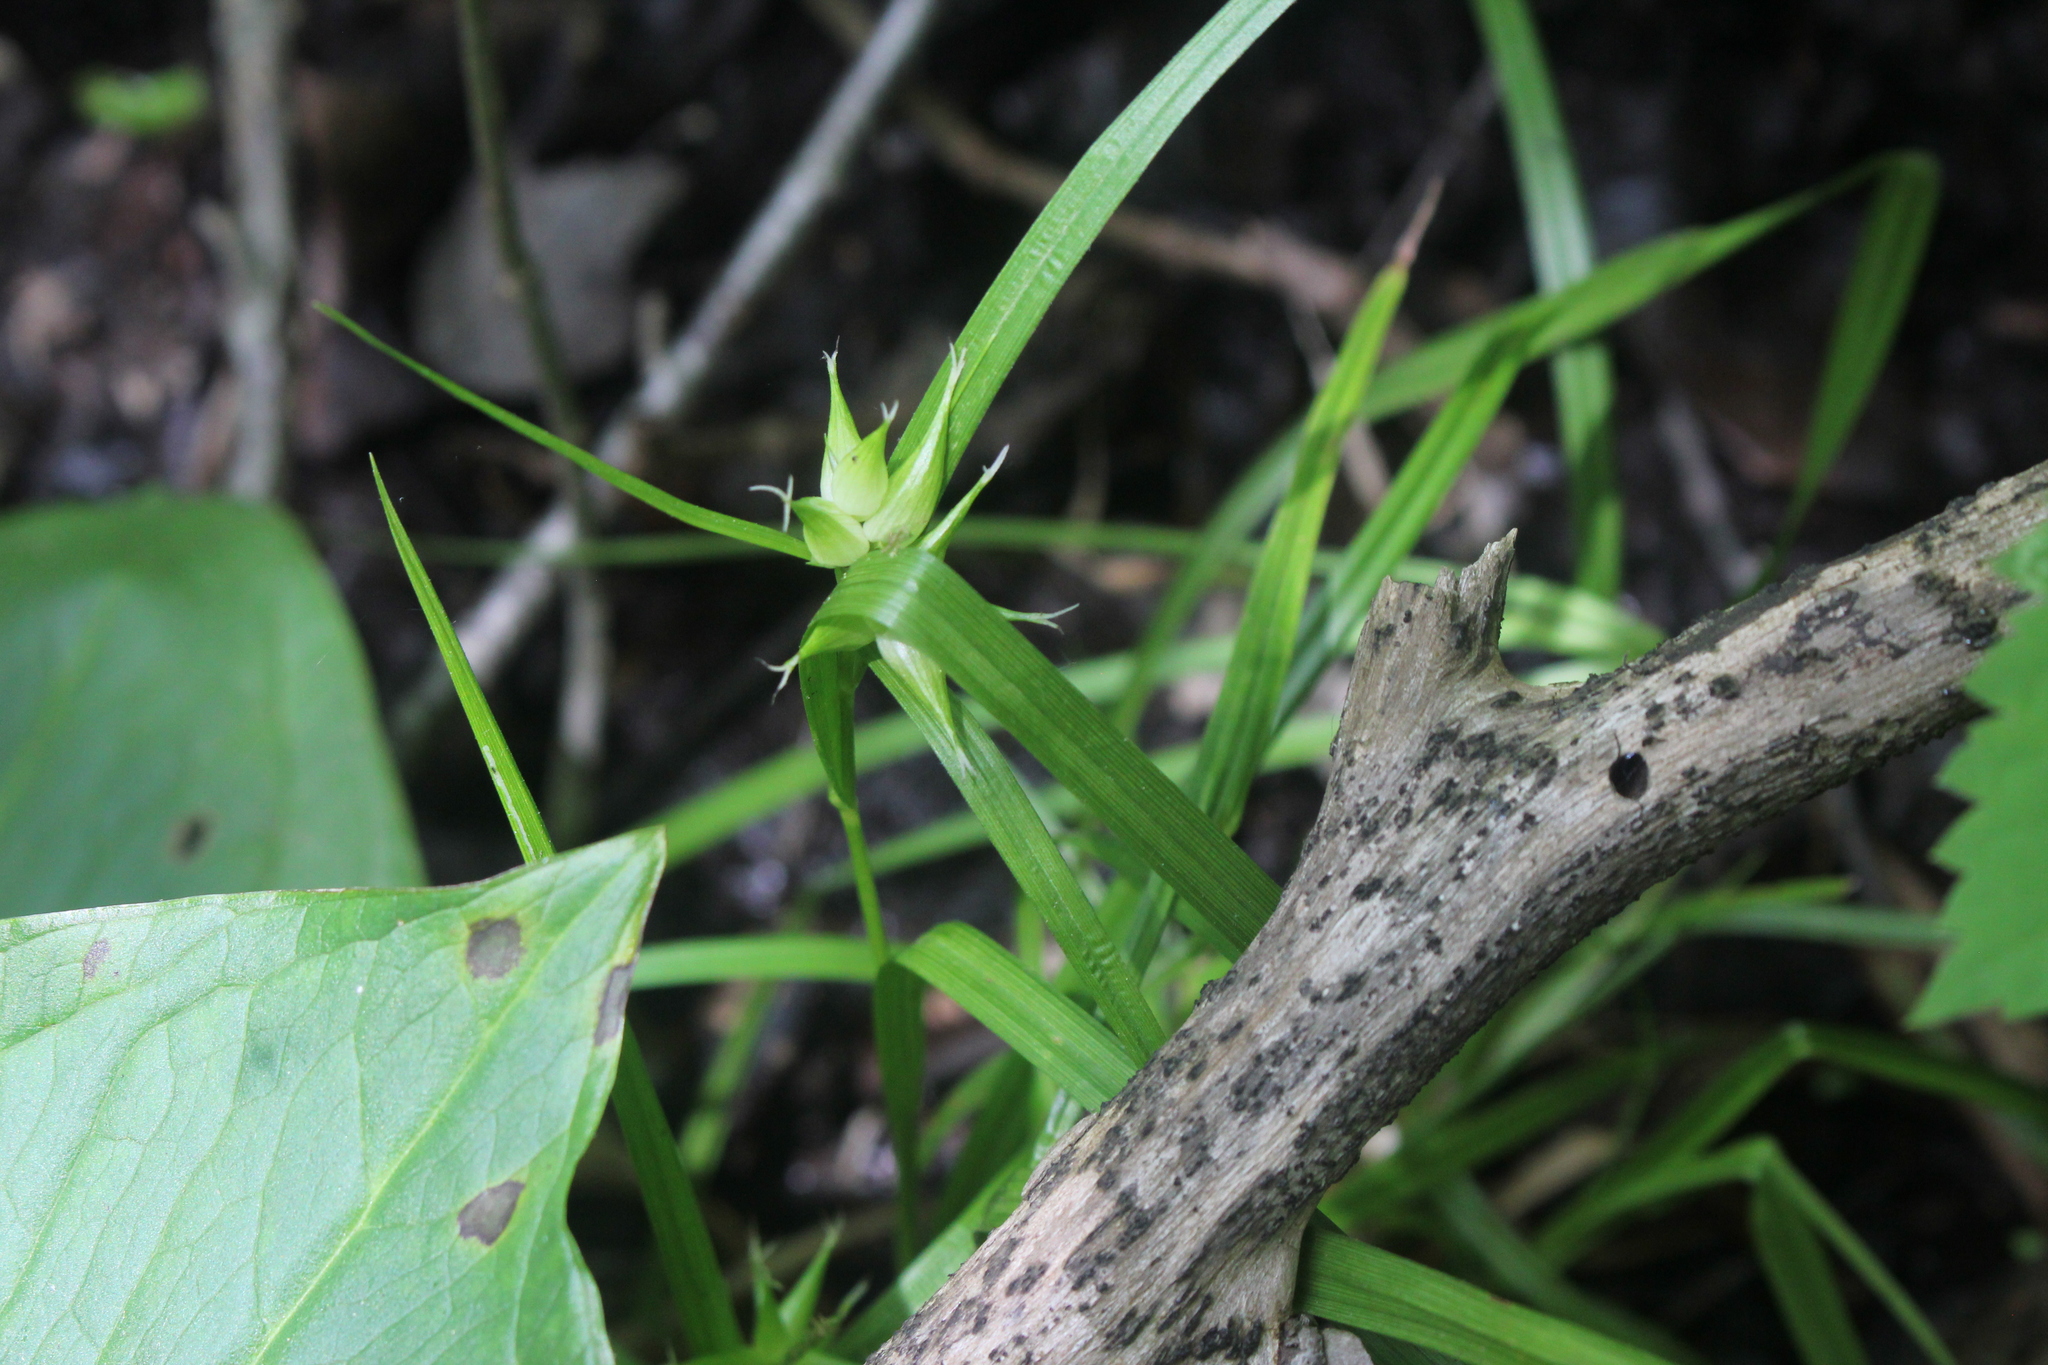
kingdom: Plantae
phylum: Tracheophyta
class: Liliopsida
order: Poales
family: Cyperaceae
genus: Carex
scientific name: Carex intumescens
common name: Greater bladder sedge
